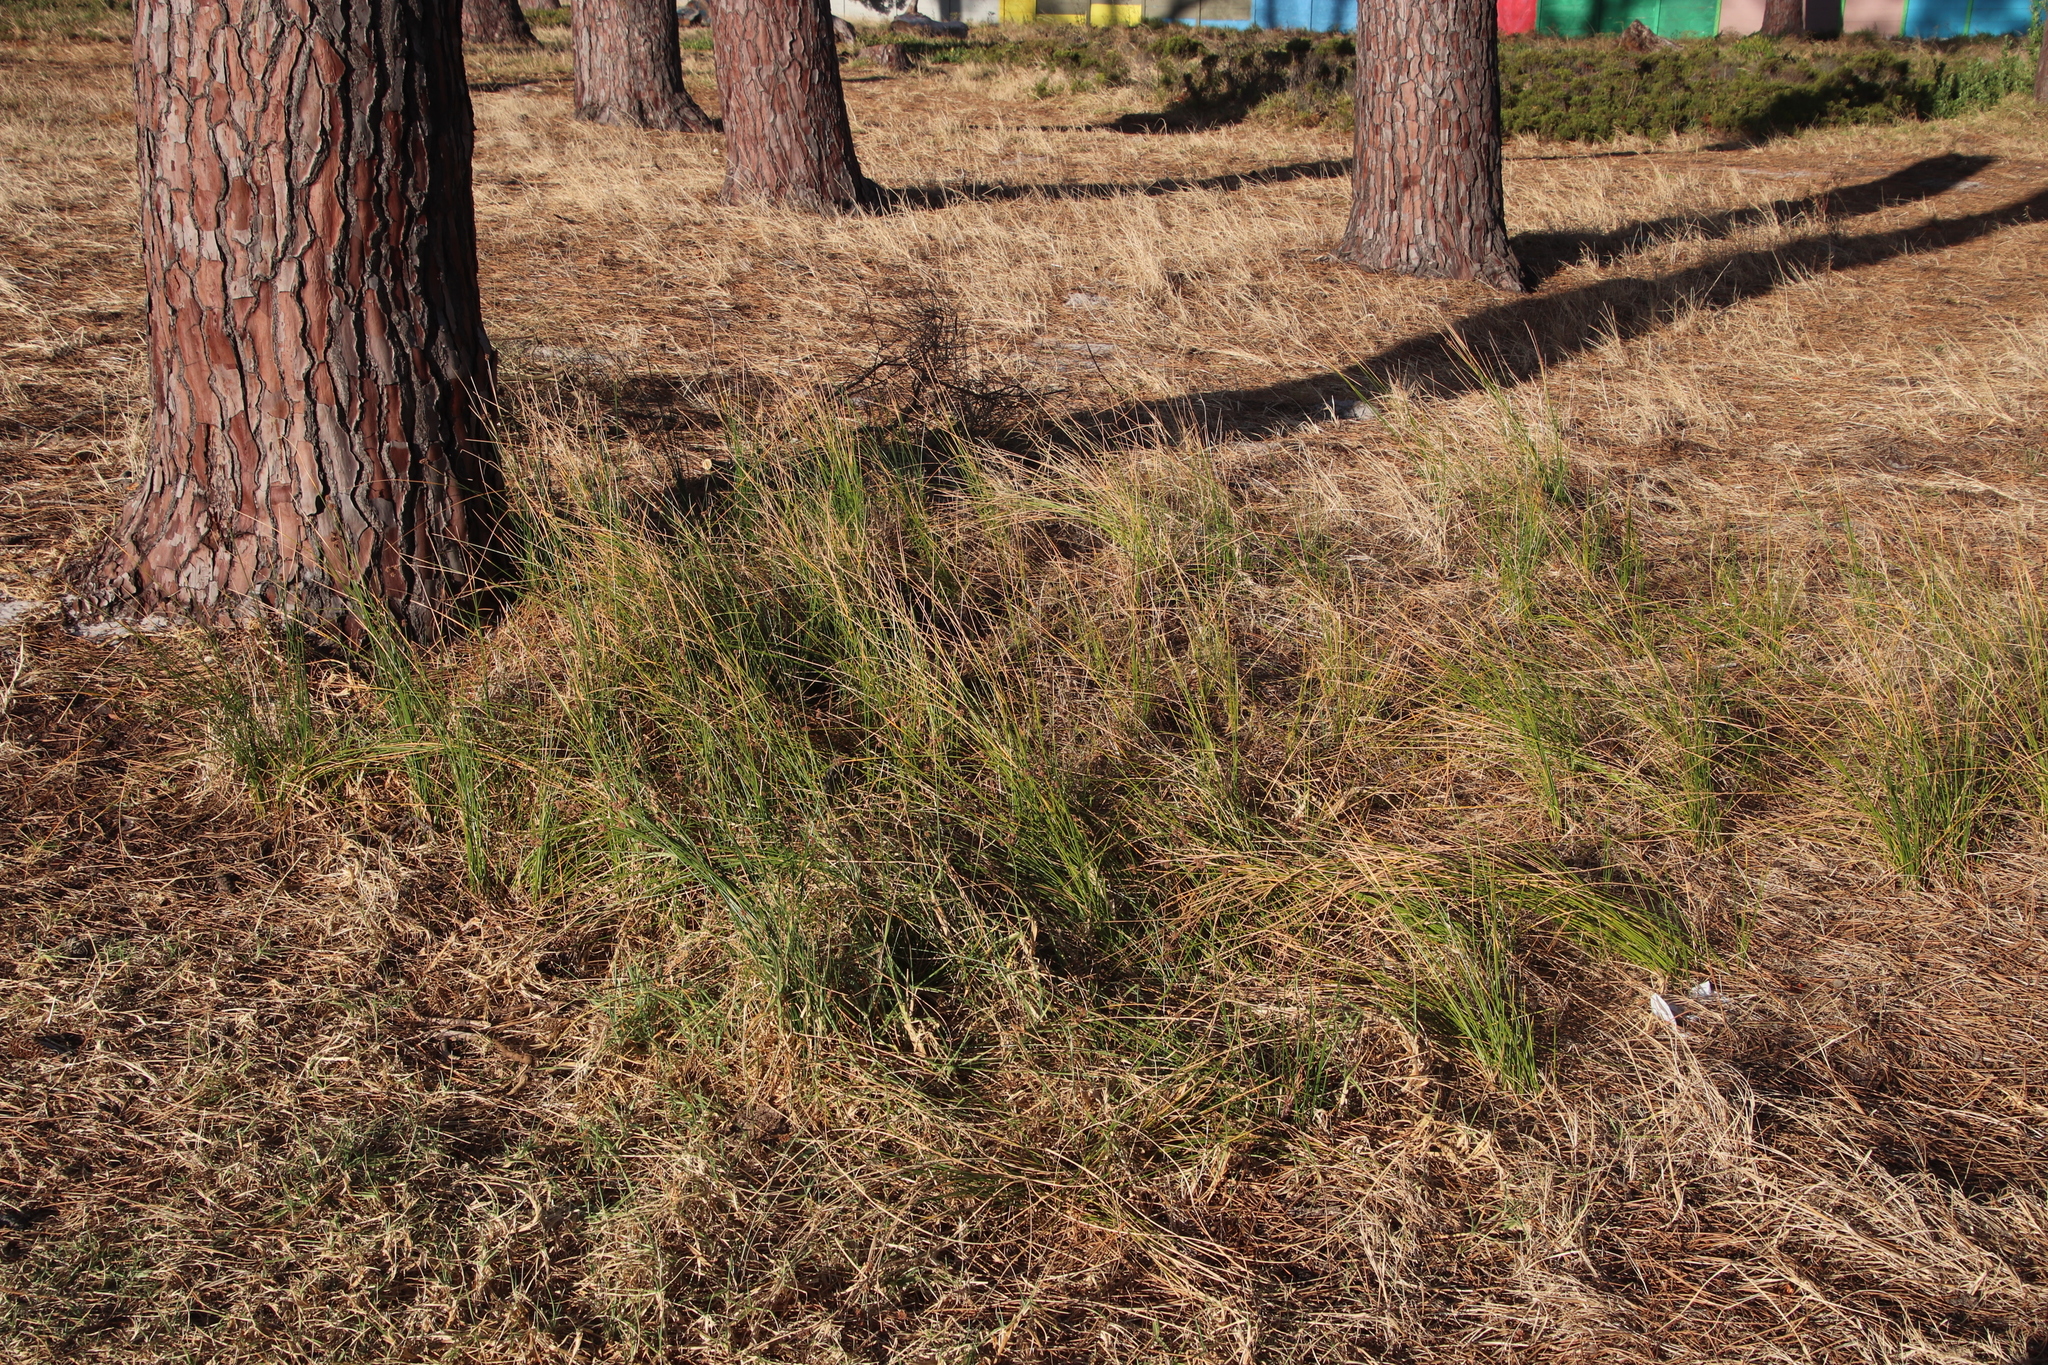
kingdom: Plantae
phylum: Tracheophyta
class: Liliopsida
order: Poales
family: Cyperaceae
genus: Ficinia
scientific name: Ficinia nodosa
